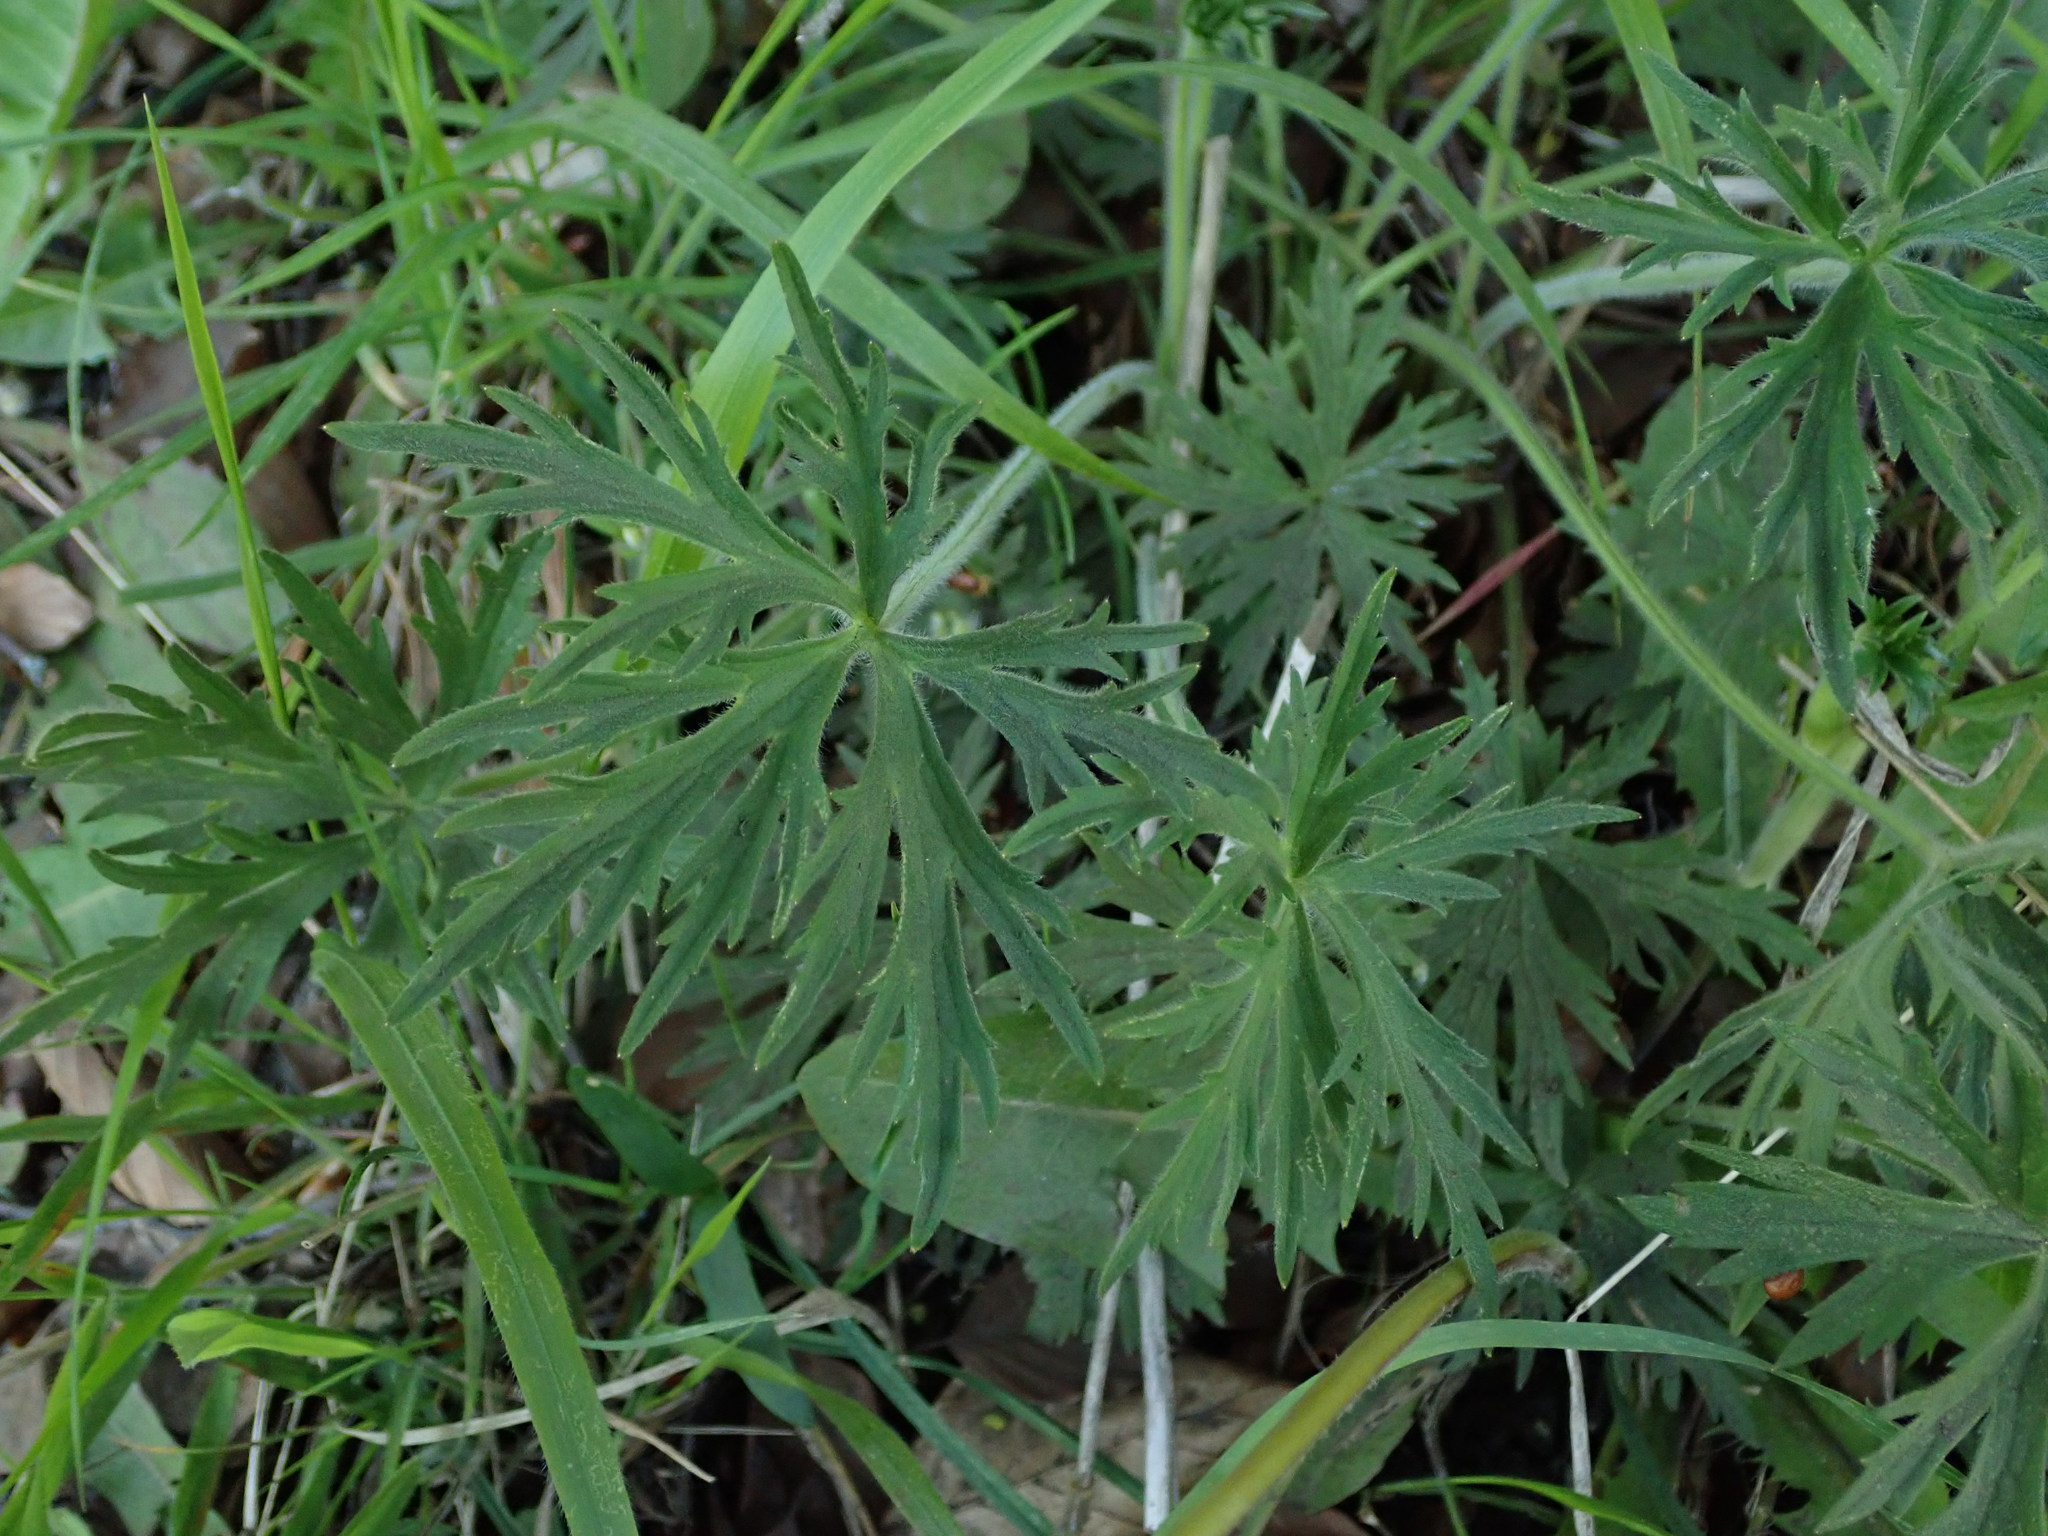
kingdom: Plantae
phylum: Tracheophyta
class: Magnoliopsida
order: Ranunculales
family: Ranunculaceae
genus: Ranunculus
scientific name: Ranunculus acris
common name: Meadow buttercup
